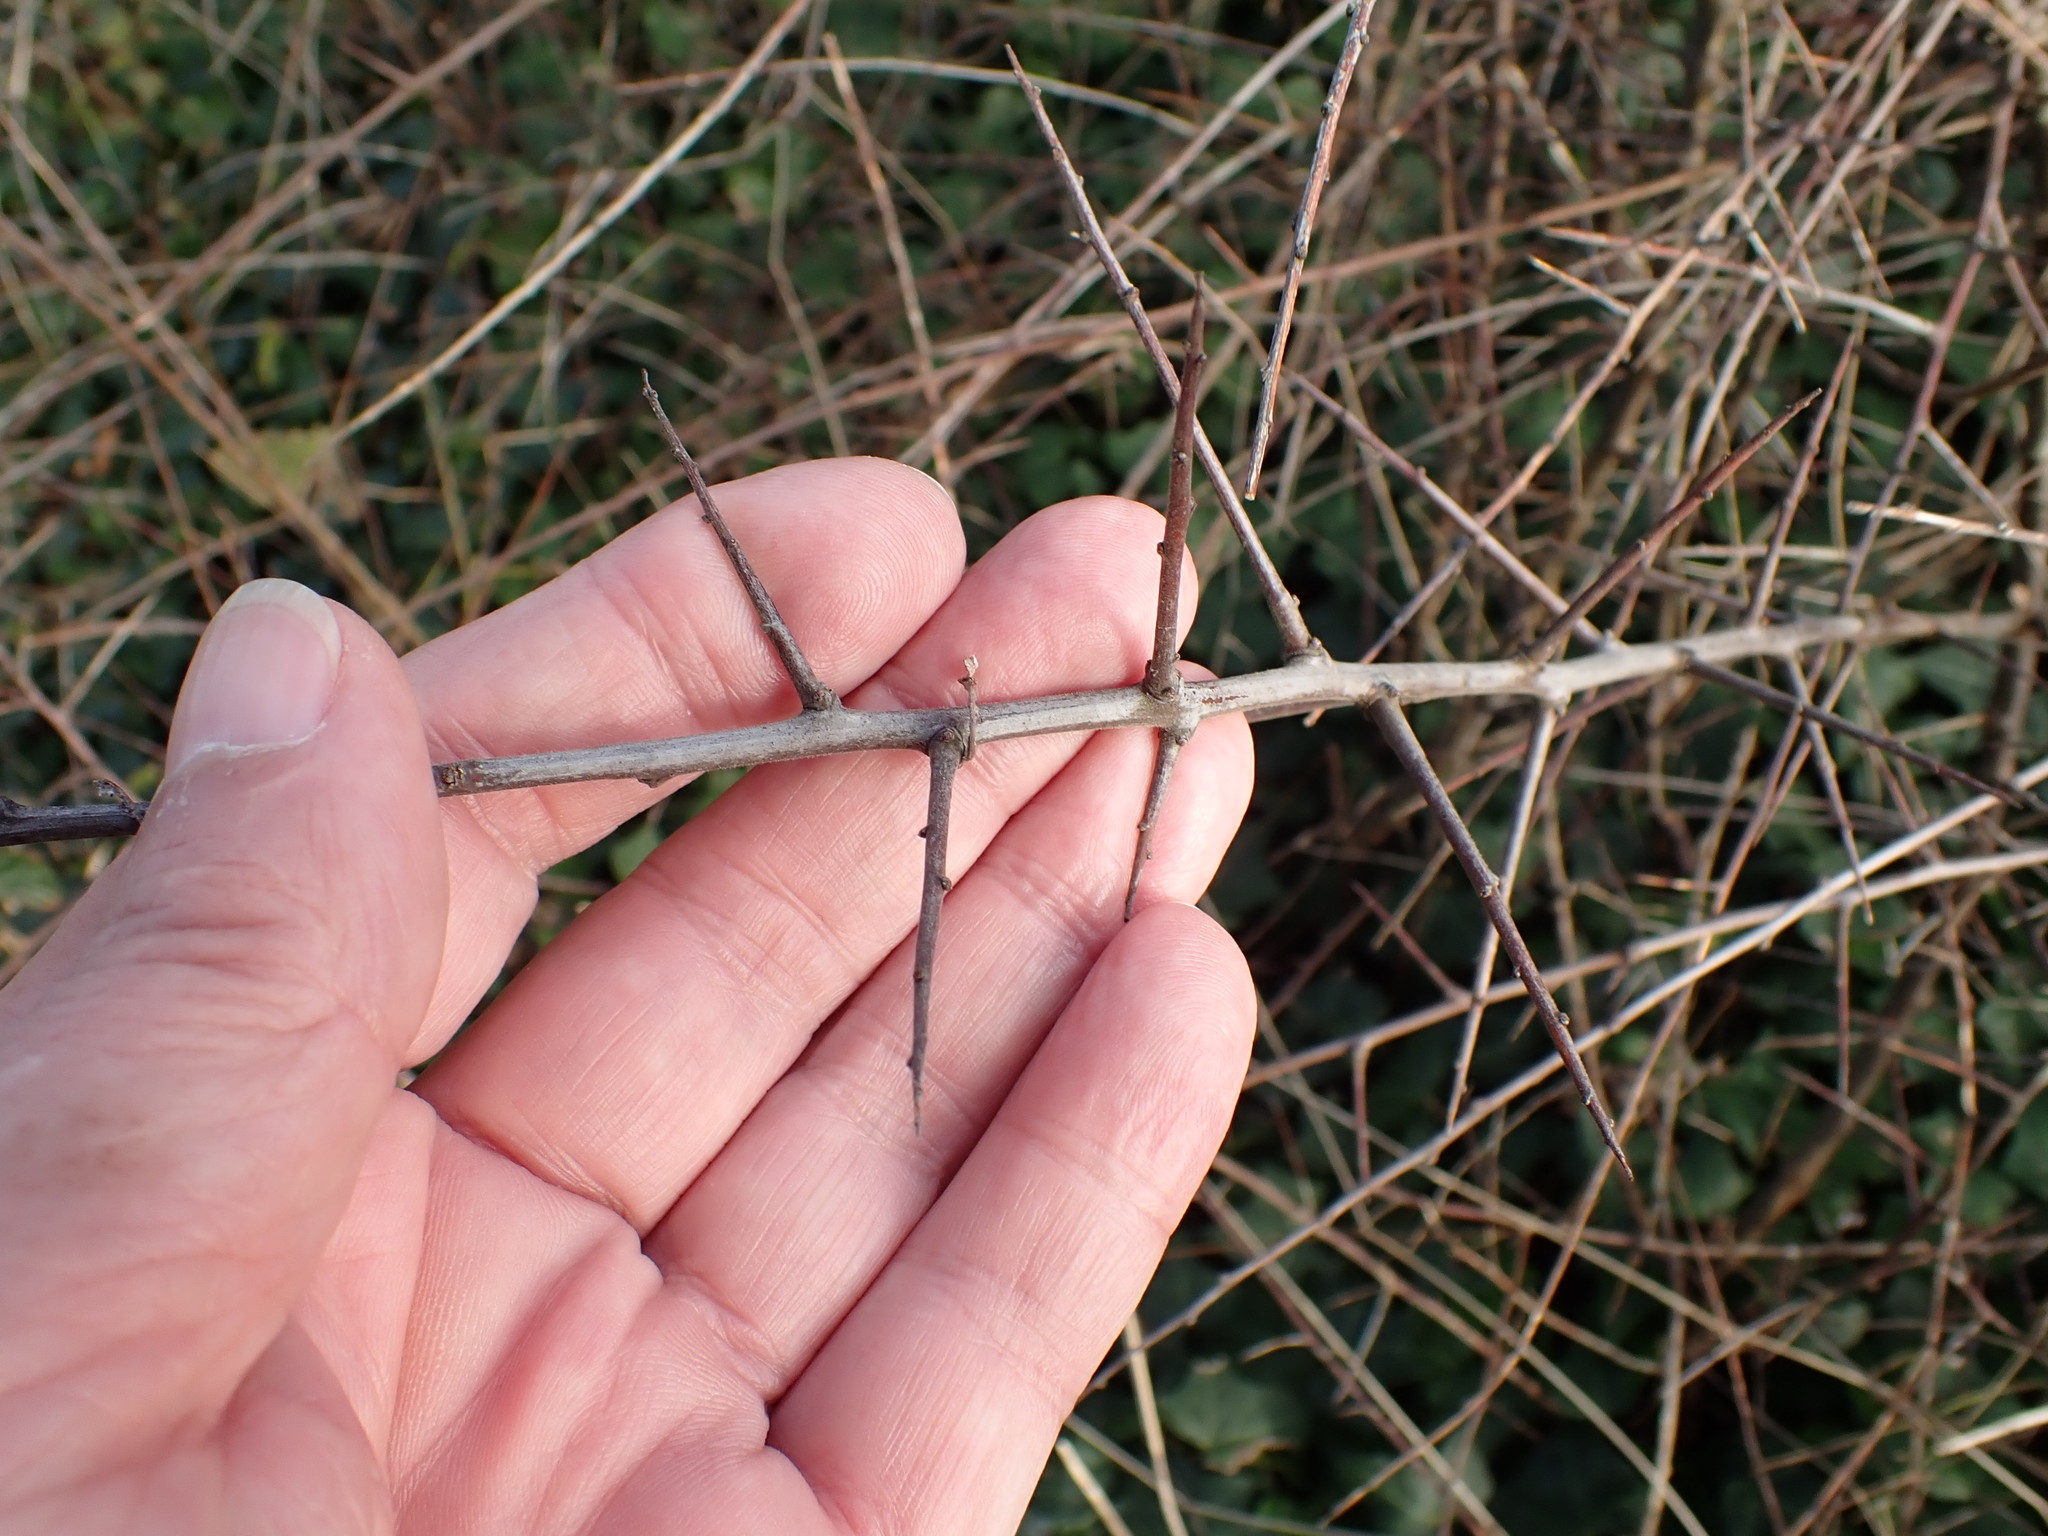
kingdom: Plantae
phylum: Tracheophyta
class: Magnoliopsida
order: Rosales
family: Rosaceae
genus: Prunus
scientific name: Prunus spinosa
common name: Blackthorn
